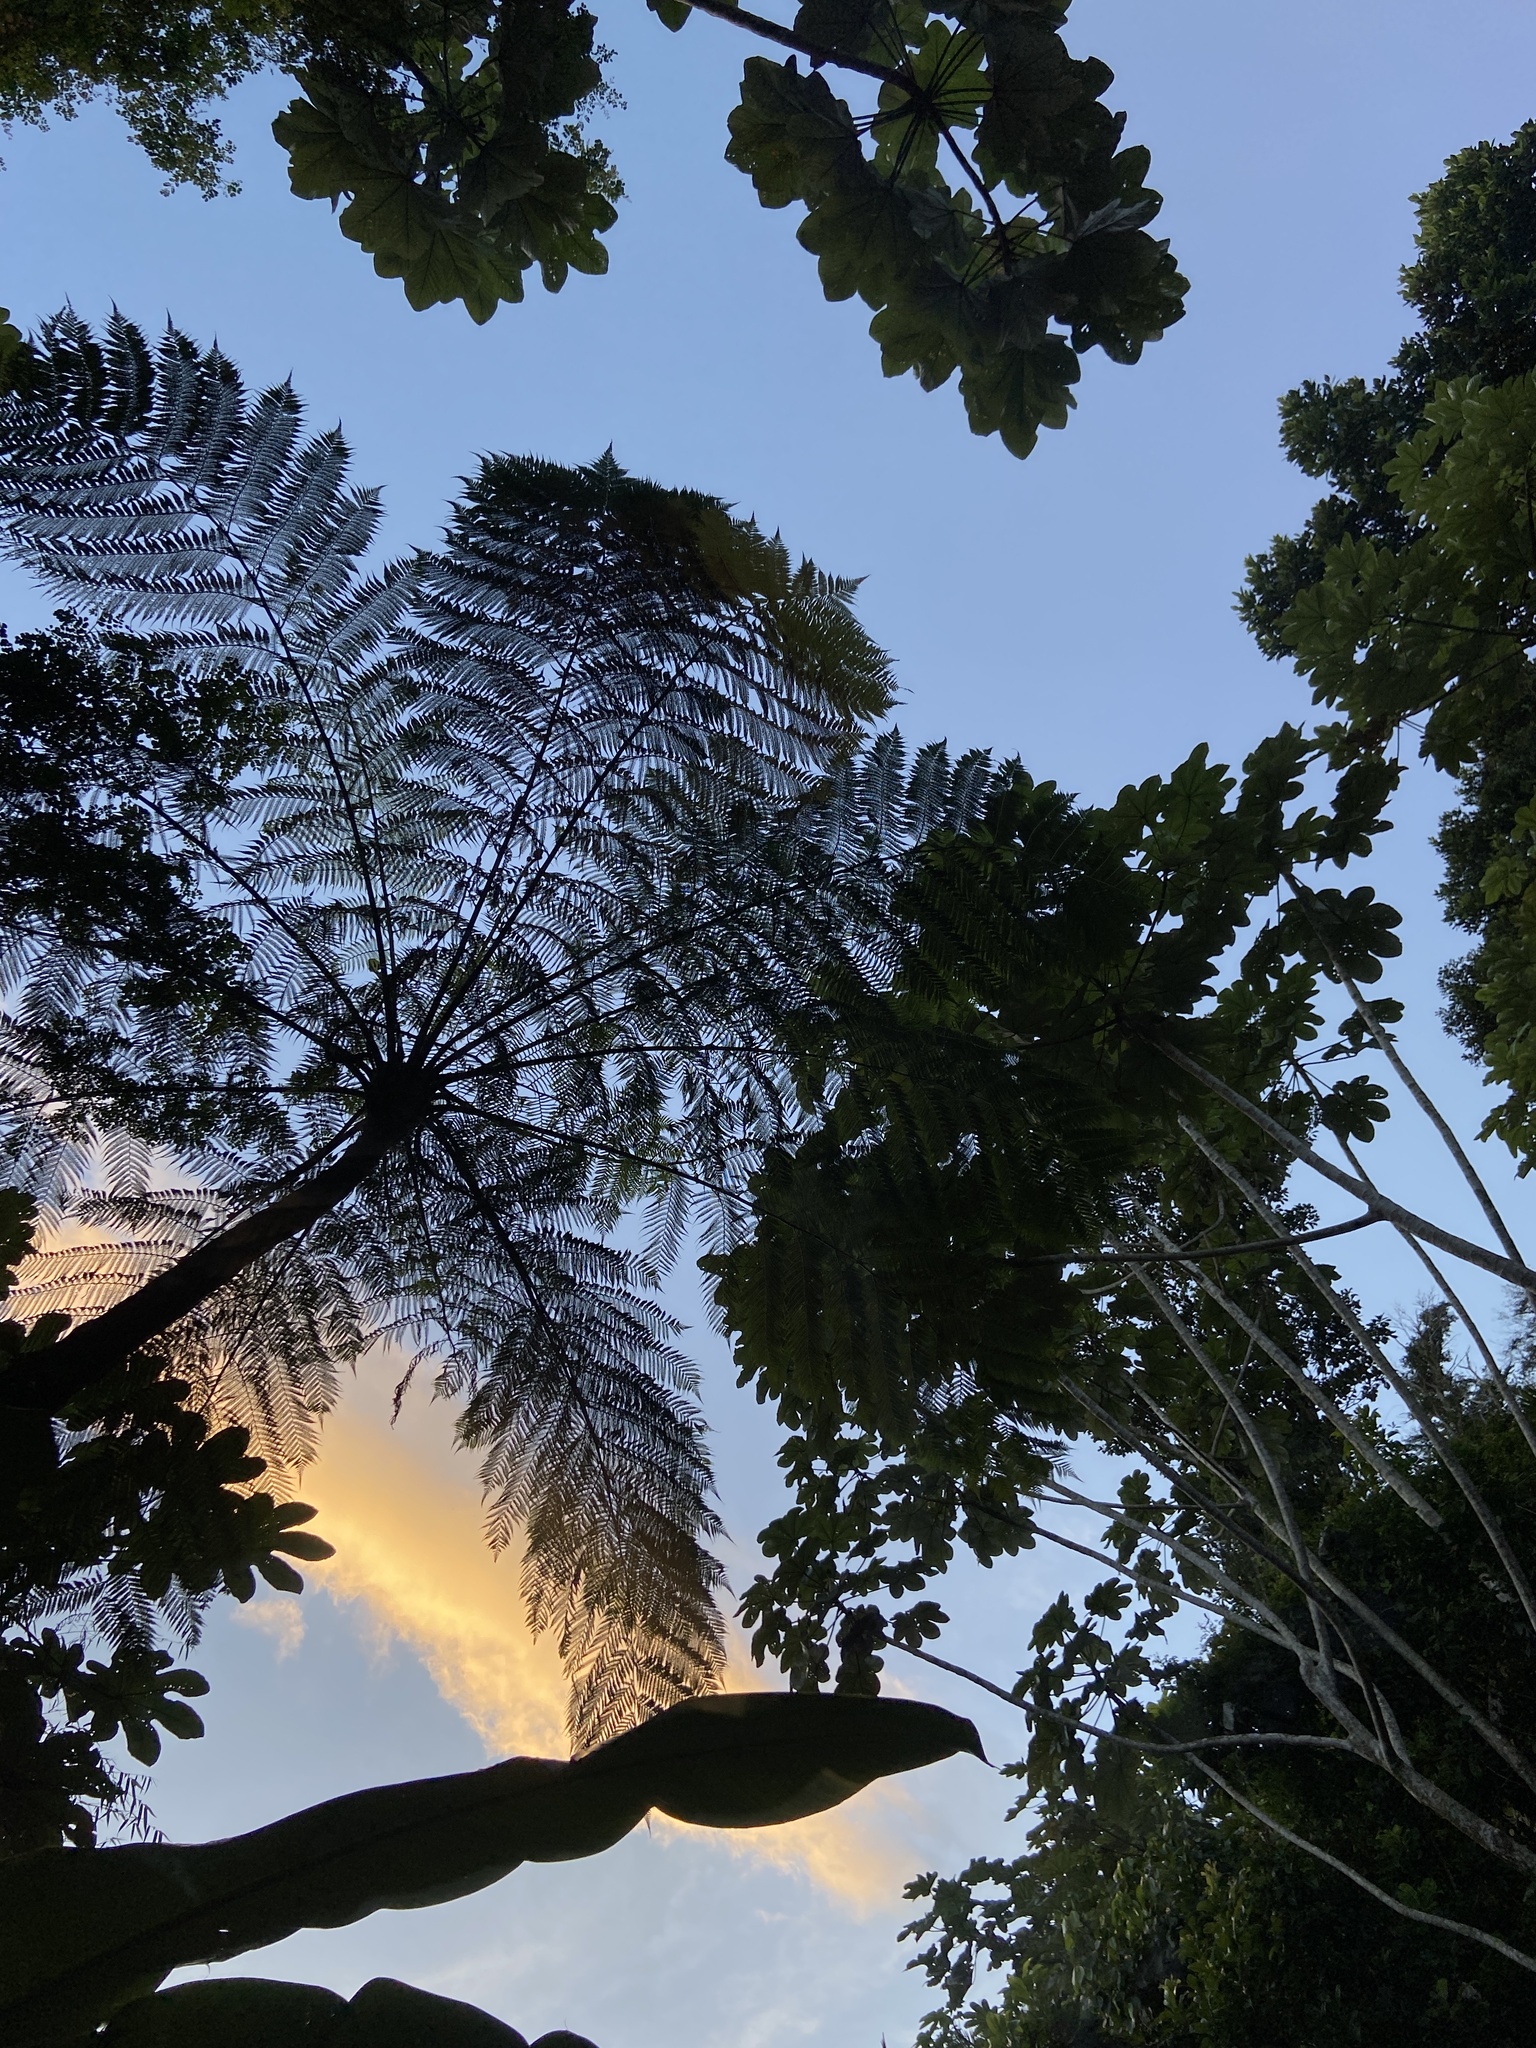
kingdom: Plantae
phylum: Tracheophyta
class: Polypodiopsida
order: Cyatheales
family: Cyatheaceae
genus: Cyathea
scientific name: Cyathea arborea
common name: West indian treefern
